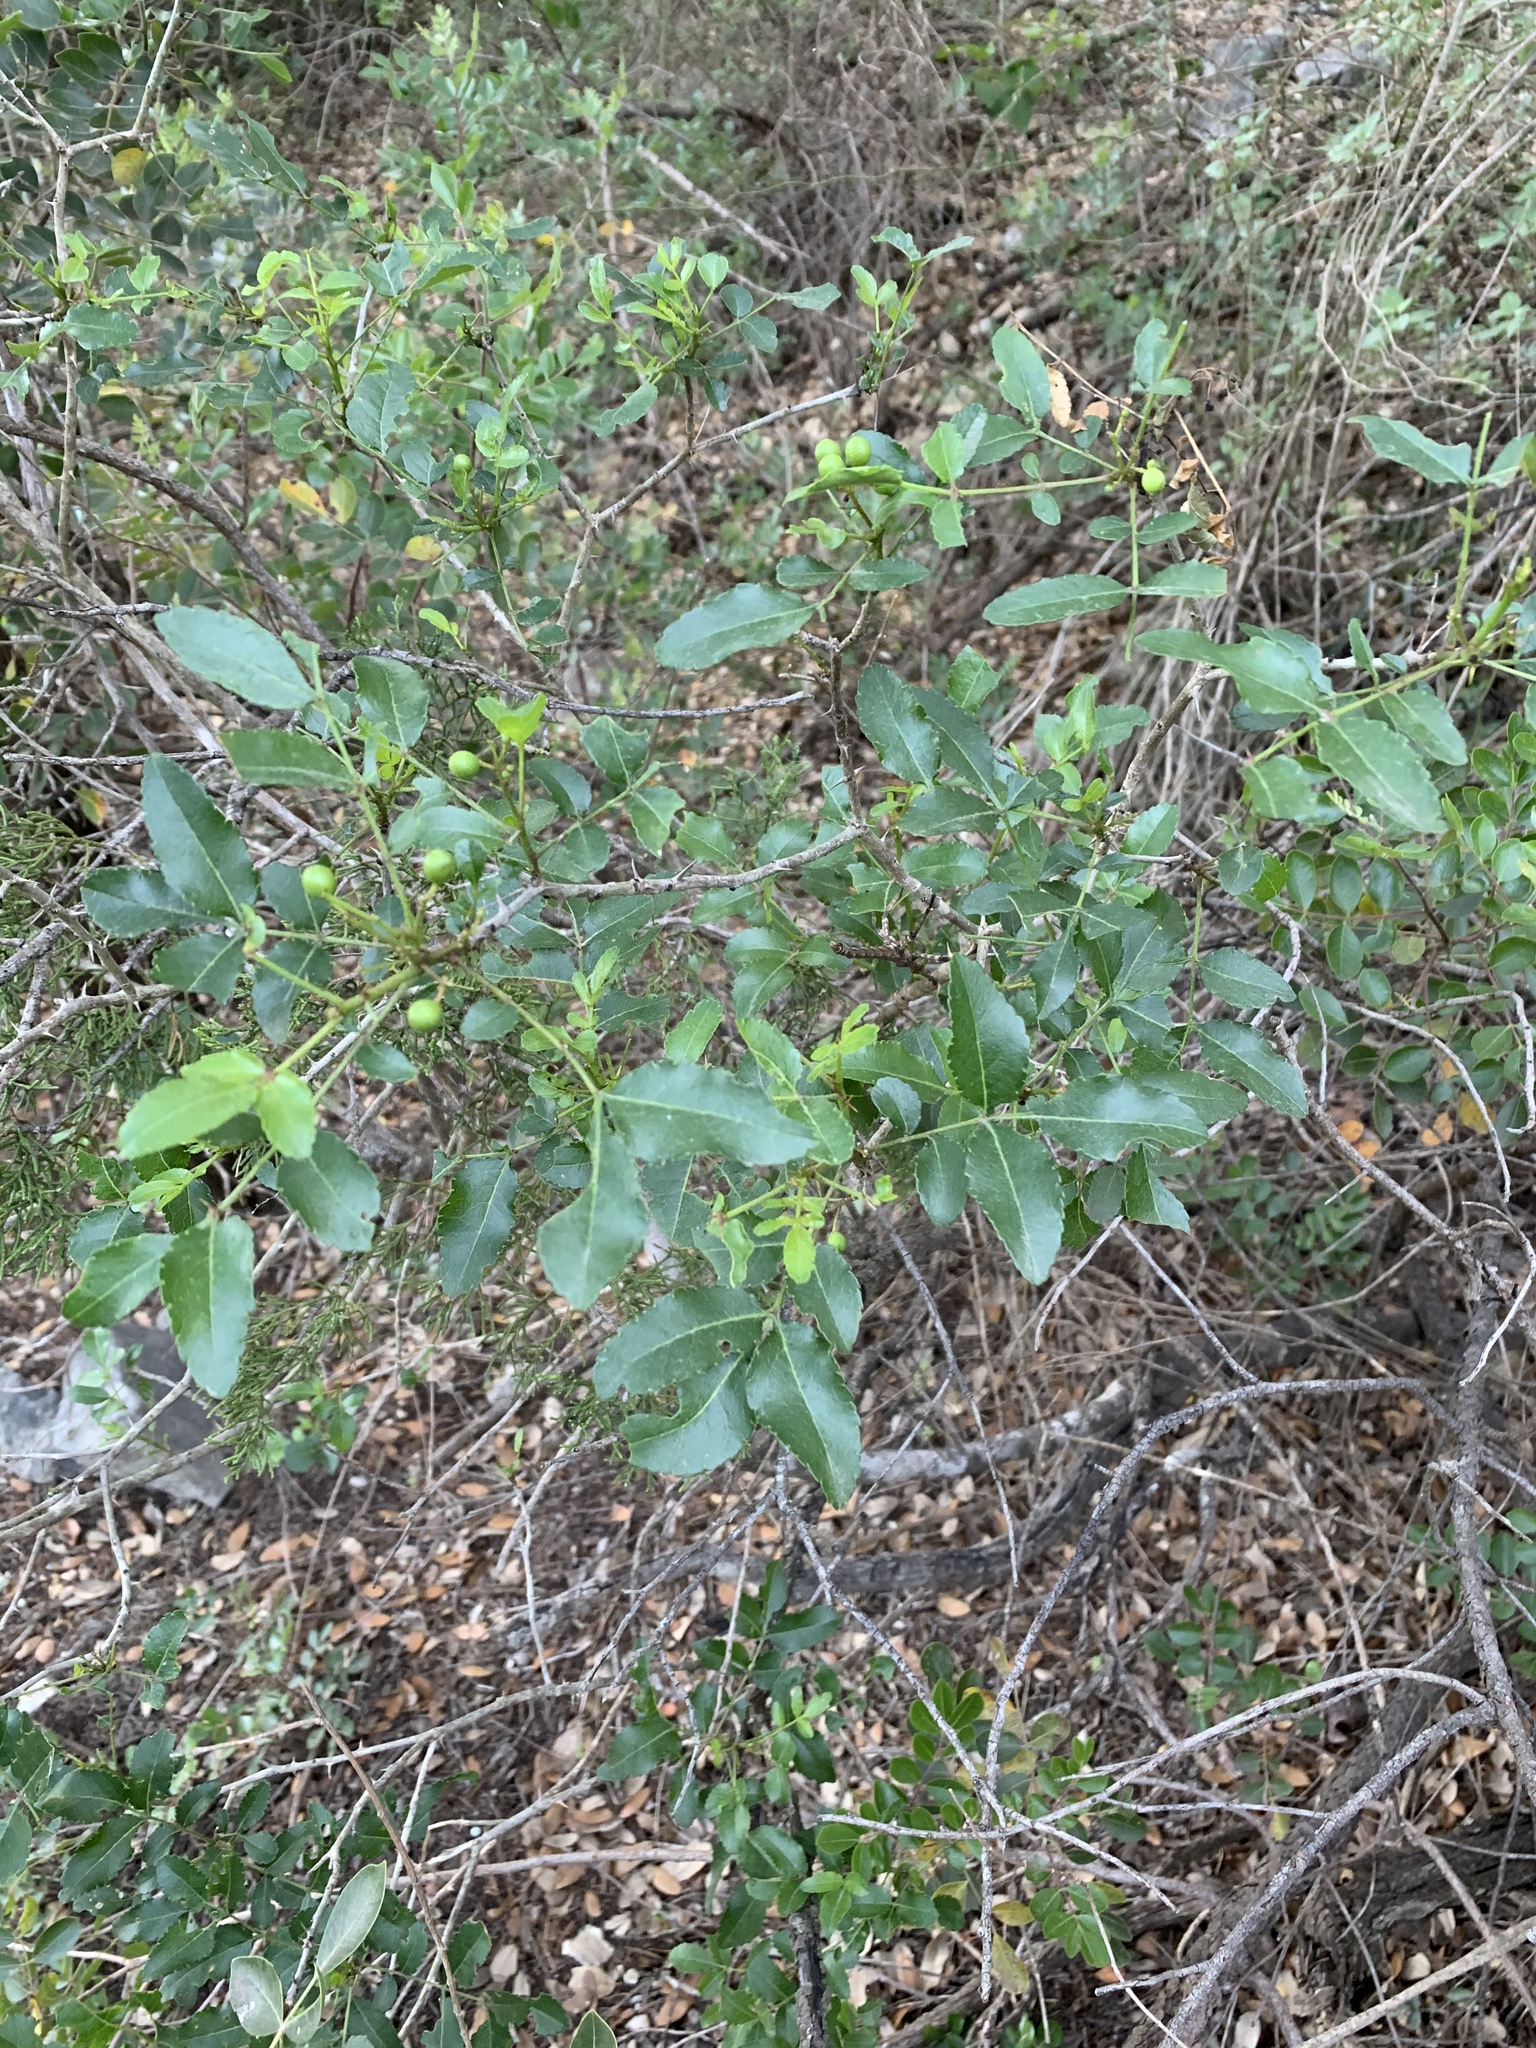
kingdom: Plantae
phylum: Tracheophyta
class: Magnoliopsida
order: Sapindales
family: Rutaceae
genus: Zanthoxylum
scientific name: Zanthoxylum clava-herculis
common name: Hercules'-club
